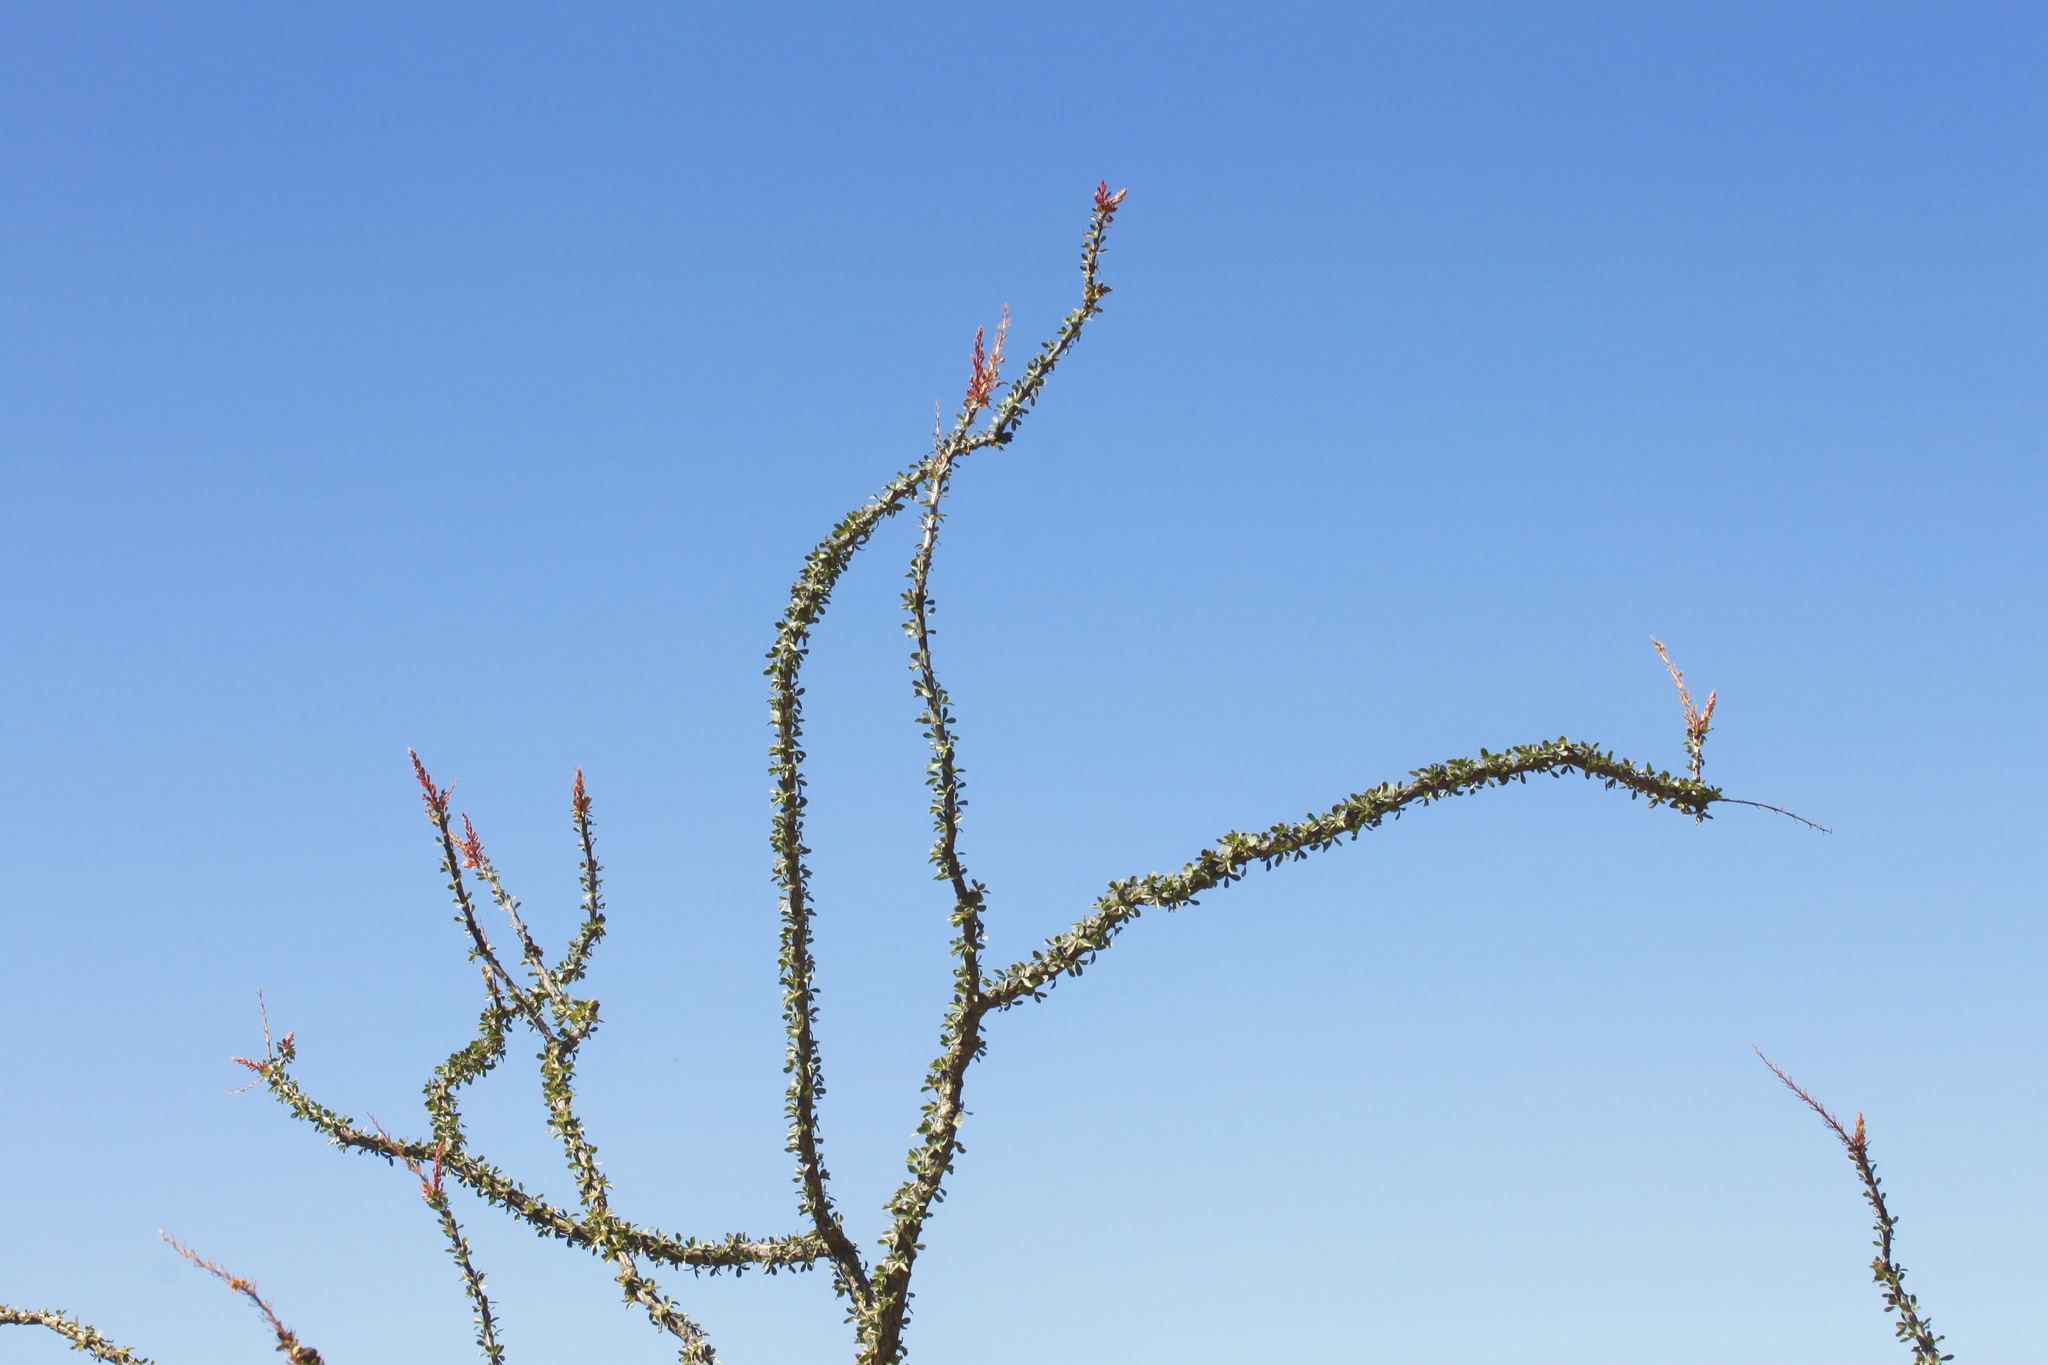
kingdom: Plantae
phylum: Tracheophyta
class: Magnoliopsida
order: Ericales
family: Fouquieriaceae
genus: Fouquieria
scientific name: Fouquieria splendens
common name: Vine-cactus
